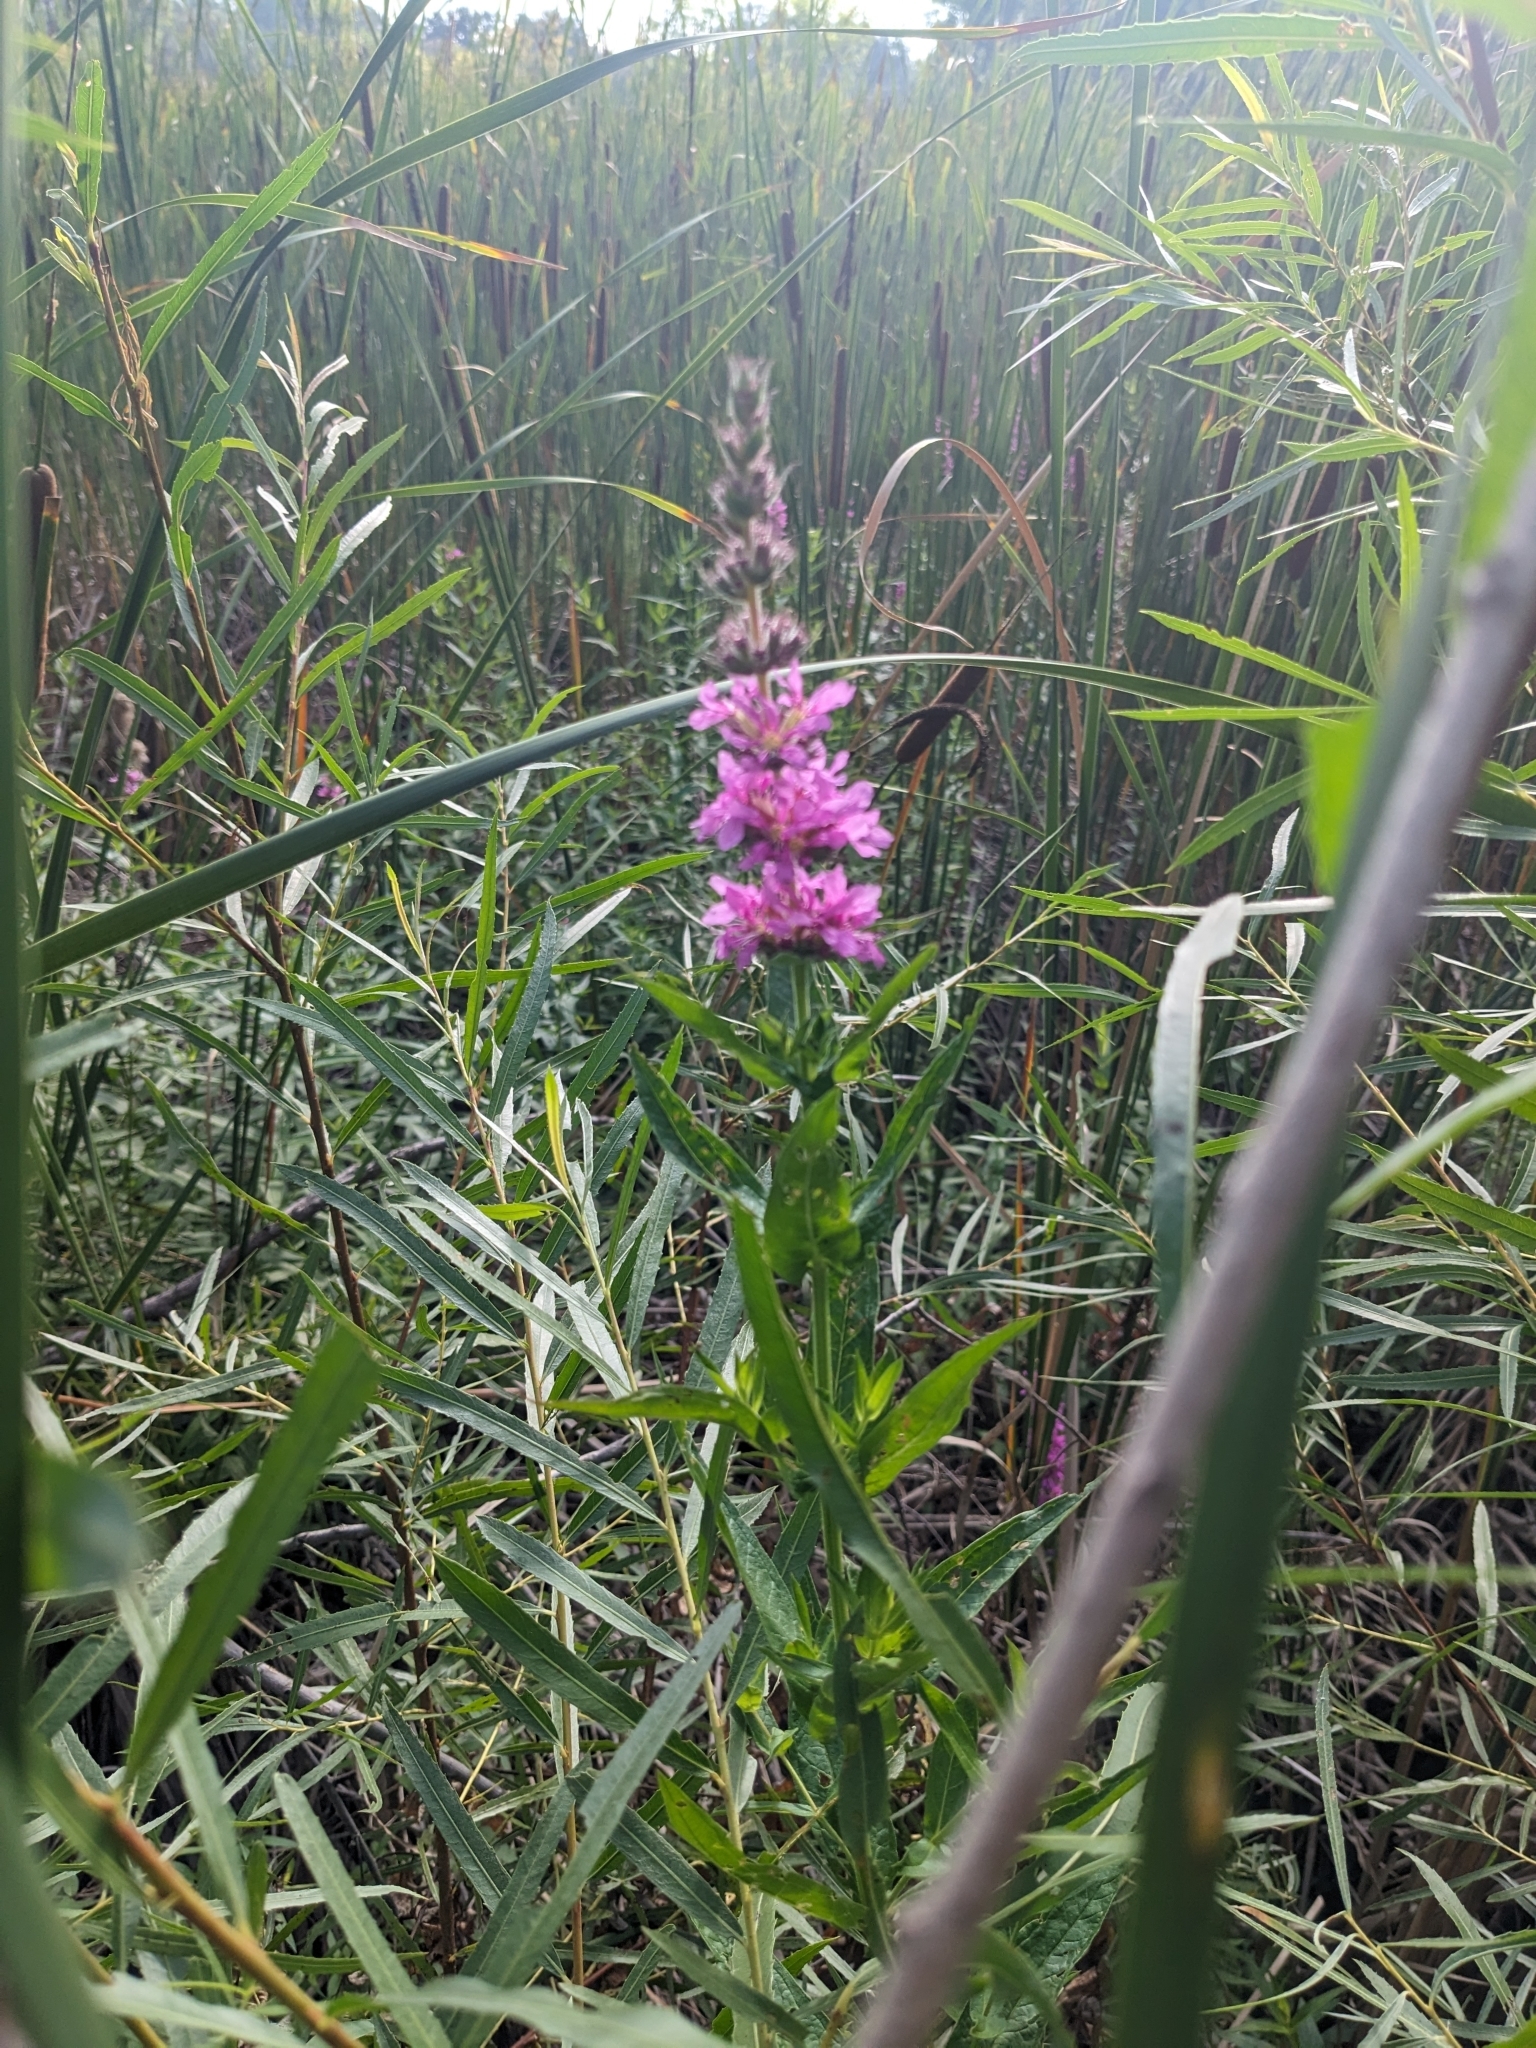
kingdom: Plantae
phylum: Tracheophyta
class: Magnoliopsida
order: Myrtales
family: Lythraceae
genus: Lythrum
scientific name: Lythrum salicaria
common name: Purple loosestrife
